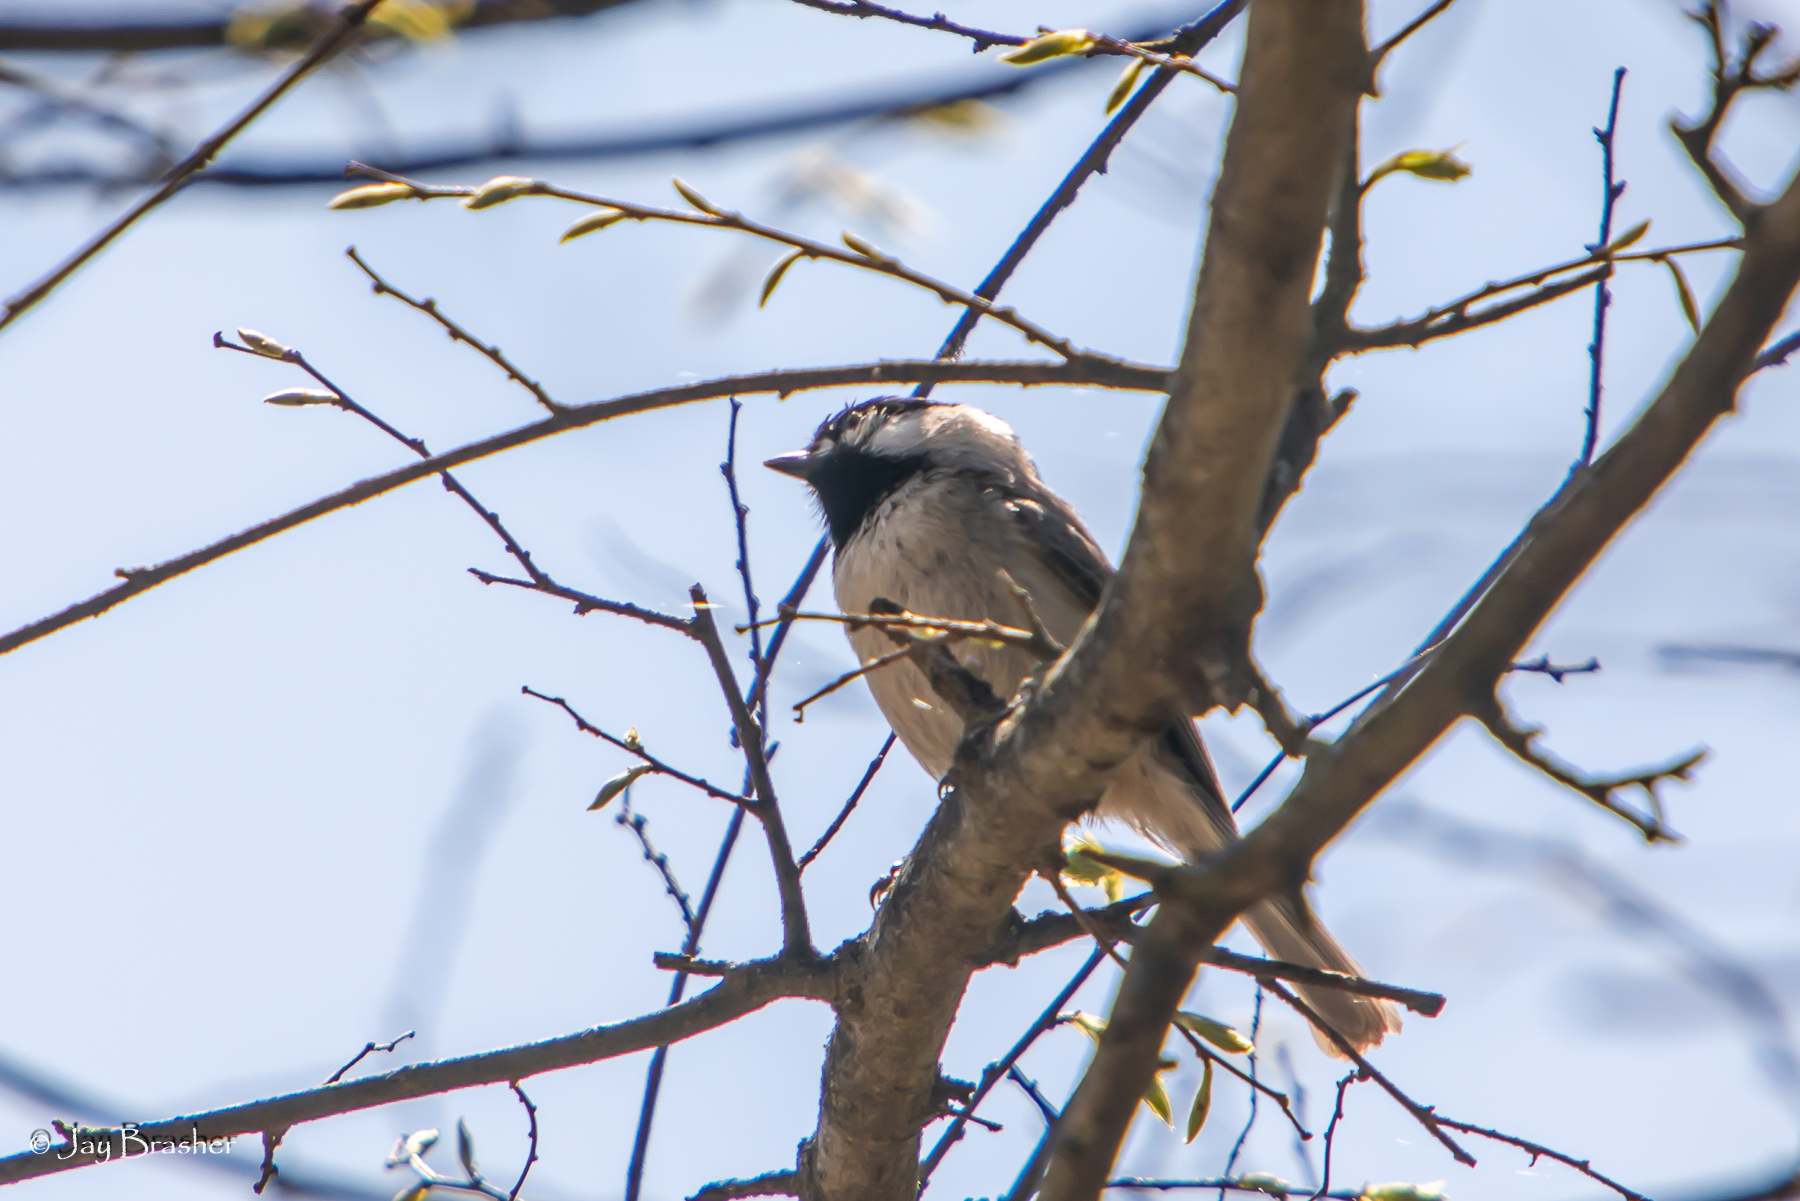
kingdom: Animalia
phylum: Chordata
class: Aves
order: Passeriformes
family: Paridae
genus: Poecile
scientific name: Poecile carolinensis
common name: Carolina chickadee
